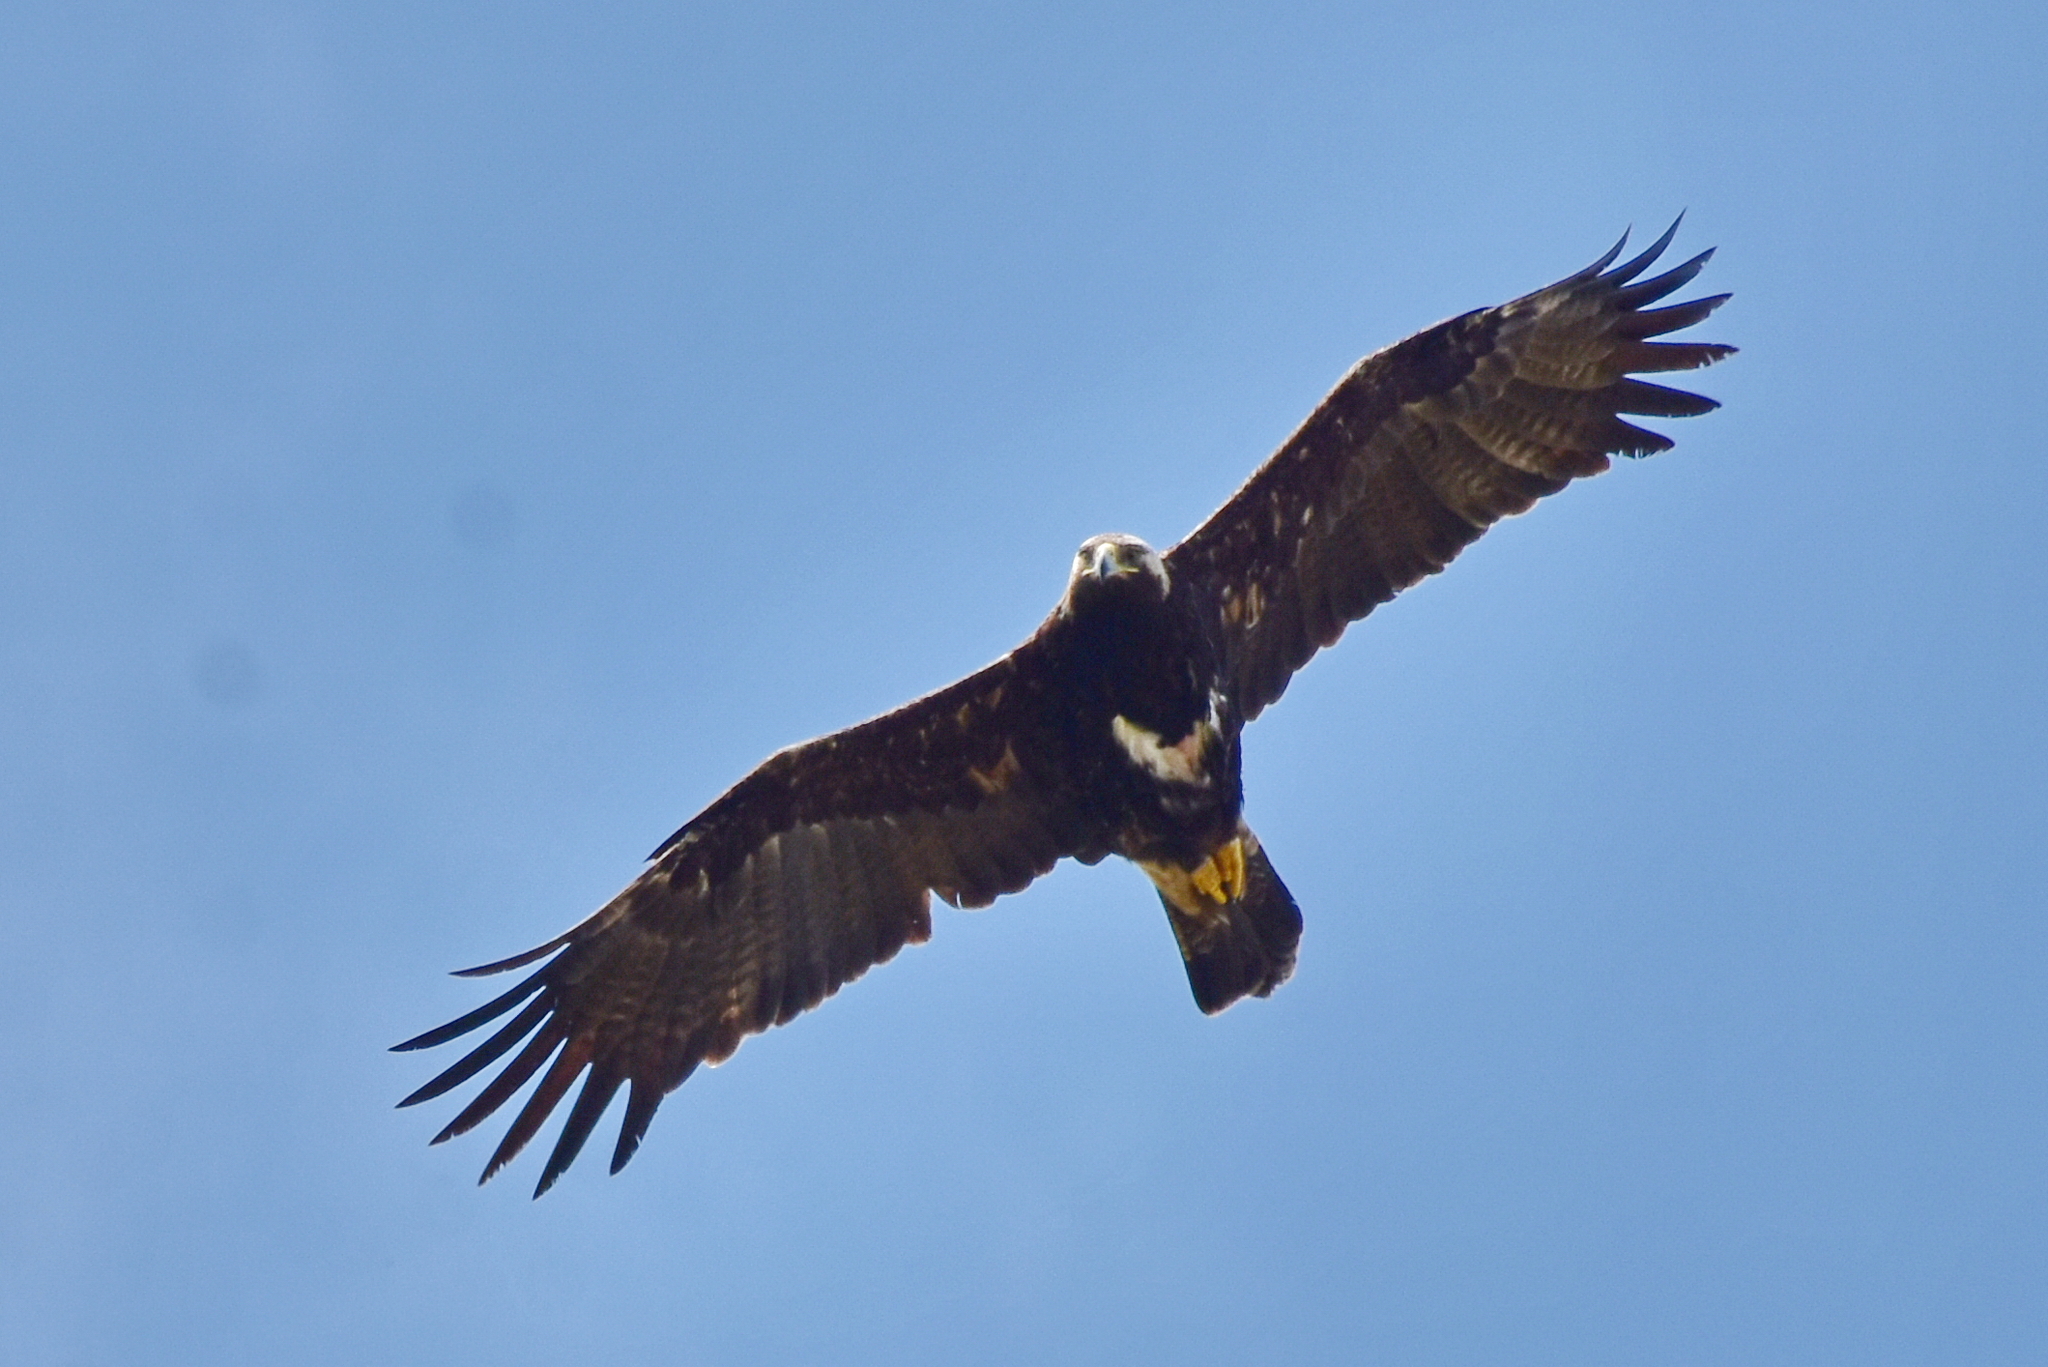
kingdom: Animalia
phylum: Chordata
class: Aves
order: Accipitriformes
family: Accipitridae
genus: Aquila
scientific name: Aquila heliaca
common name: Eastern imperial eagle
